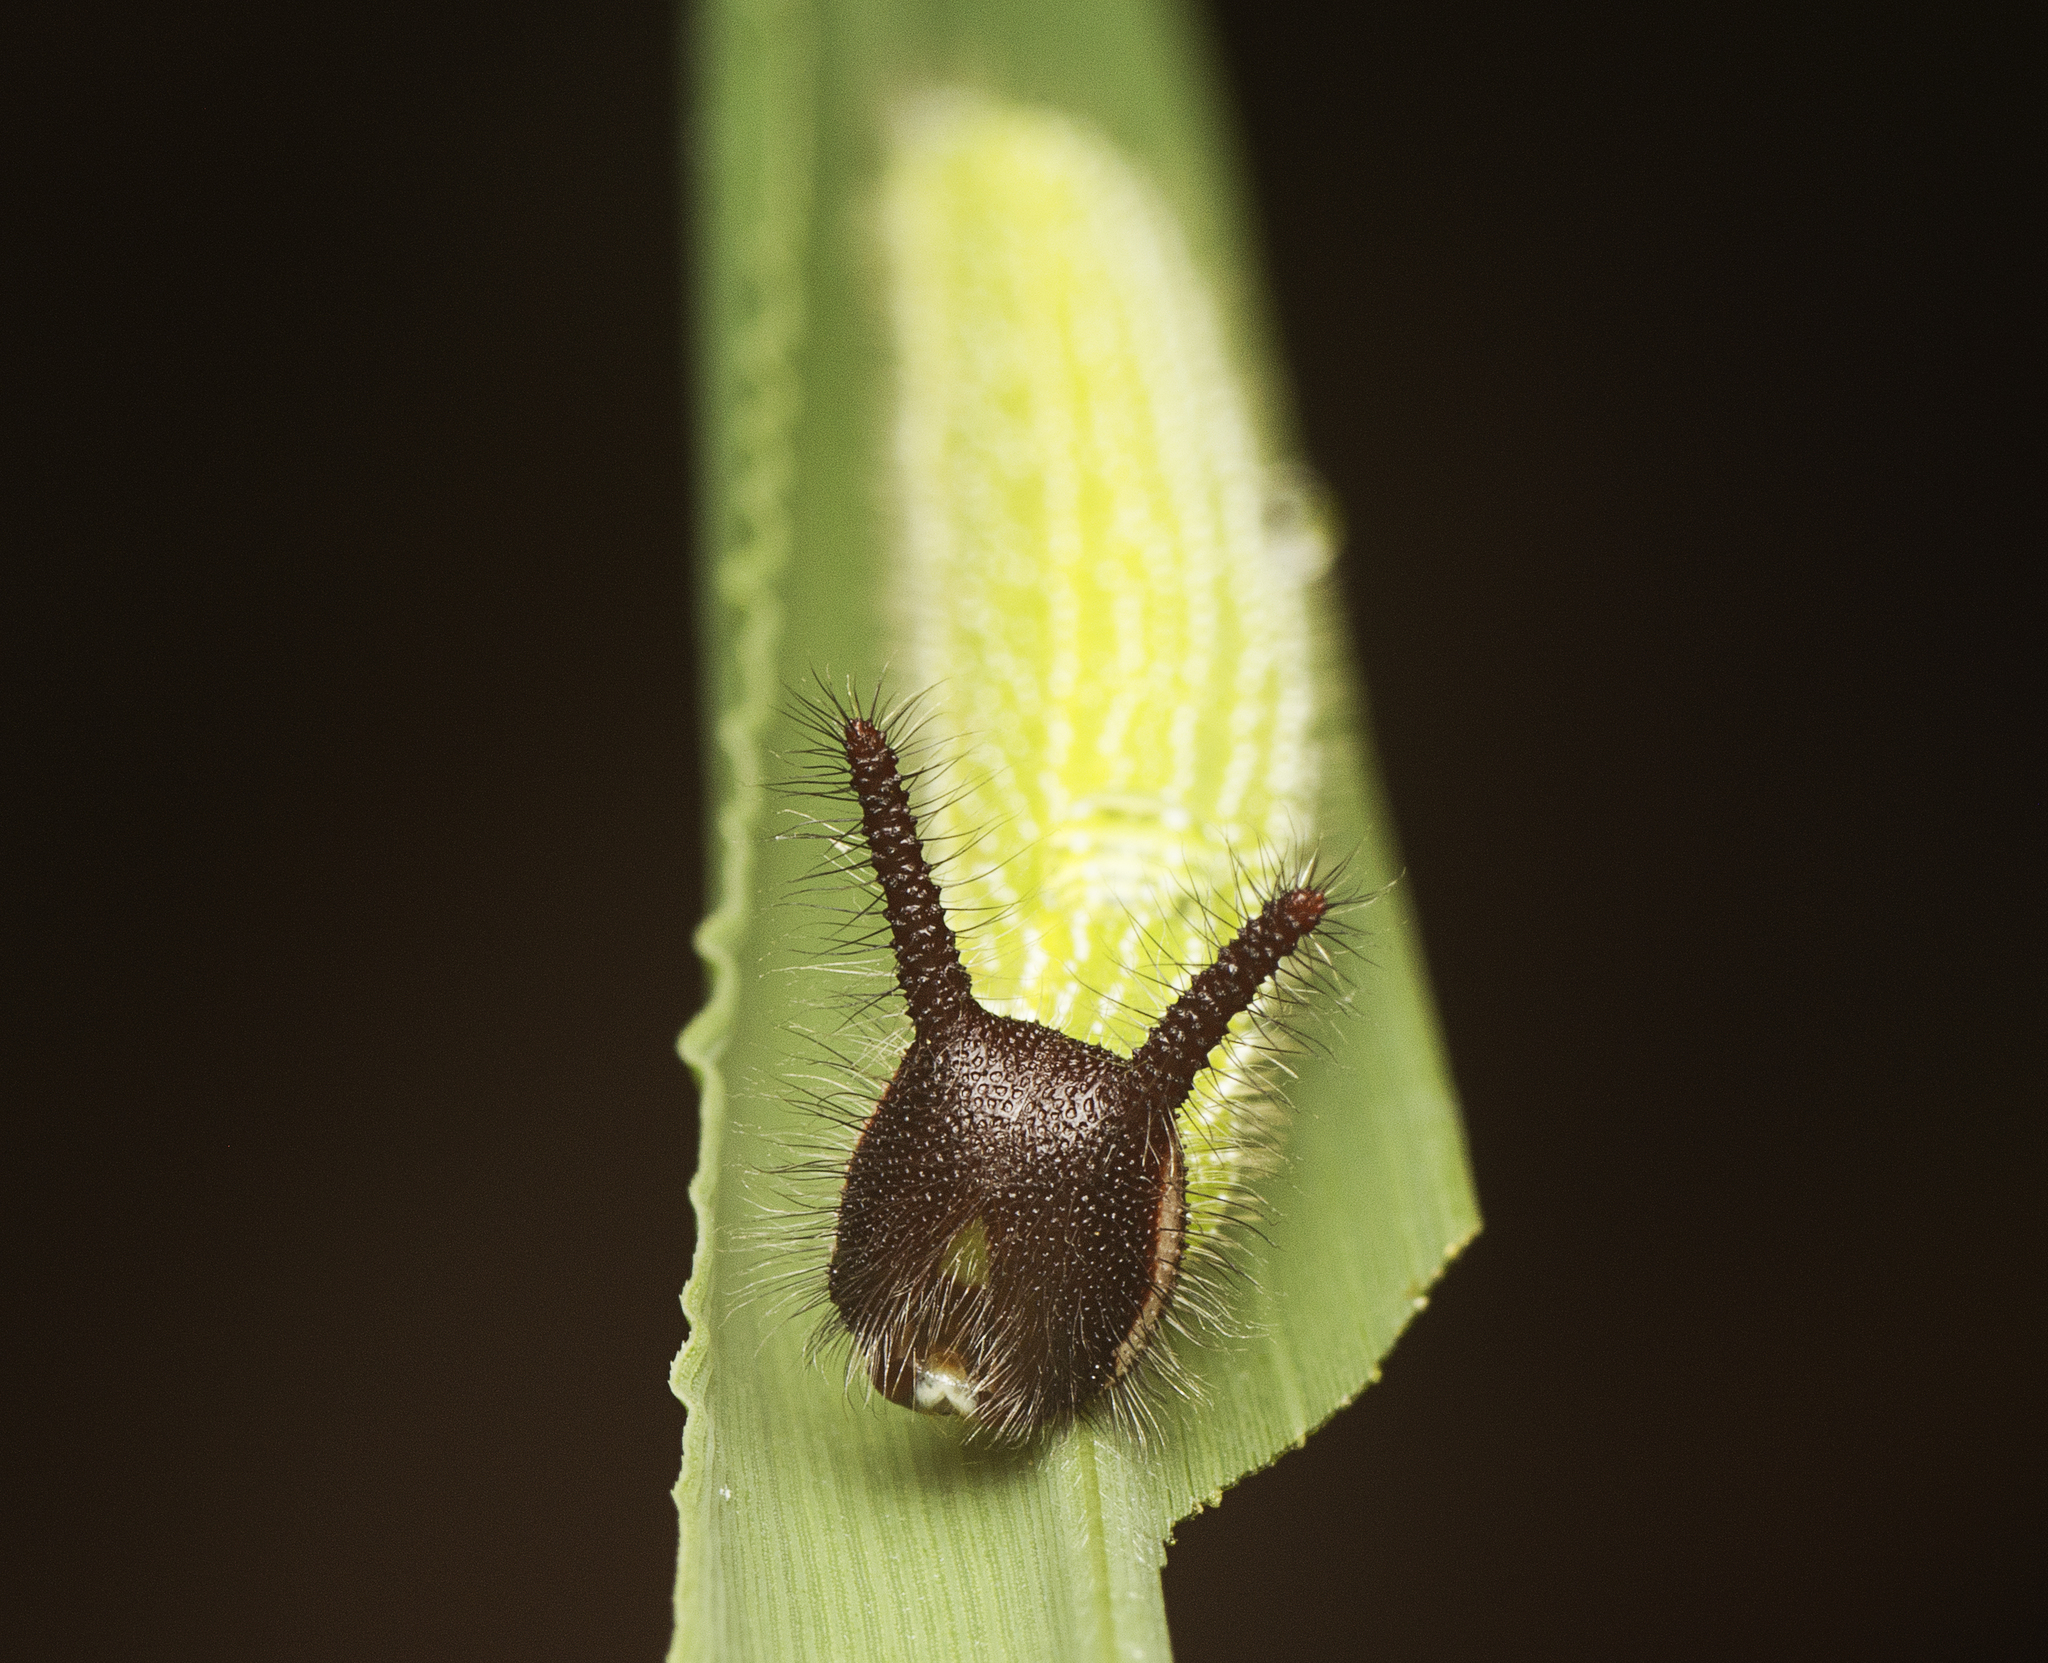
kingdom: Animalia
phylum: Arthropoda
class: Insecta
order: Lepidoptera
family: Nymphalidae
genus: Melanitis
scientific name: Melanitis leda
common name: Twilight brown
